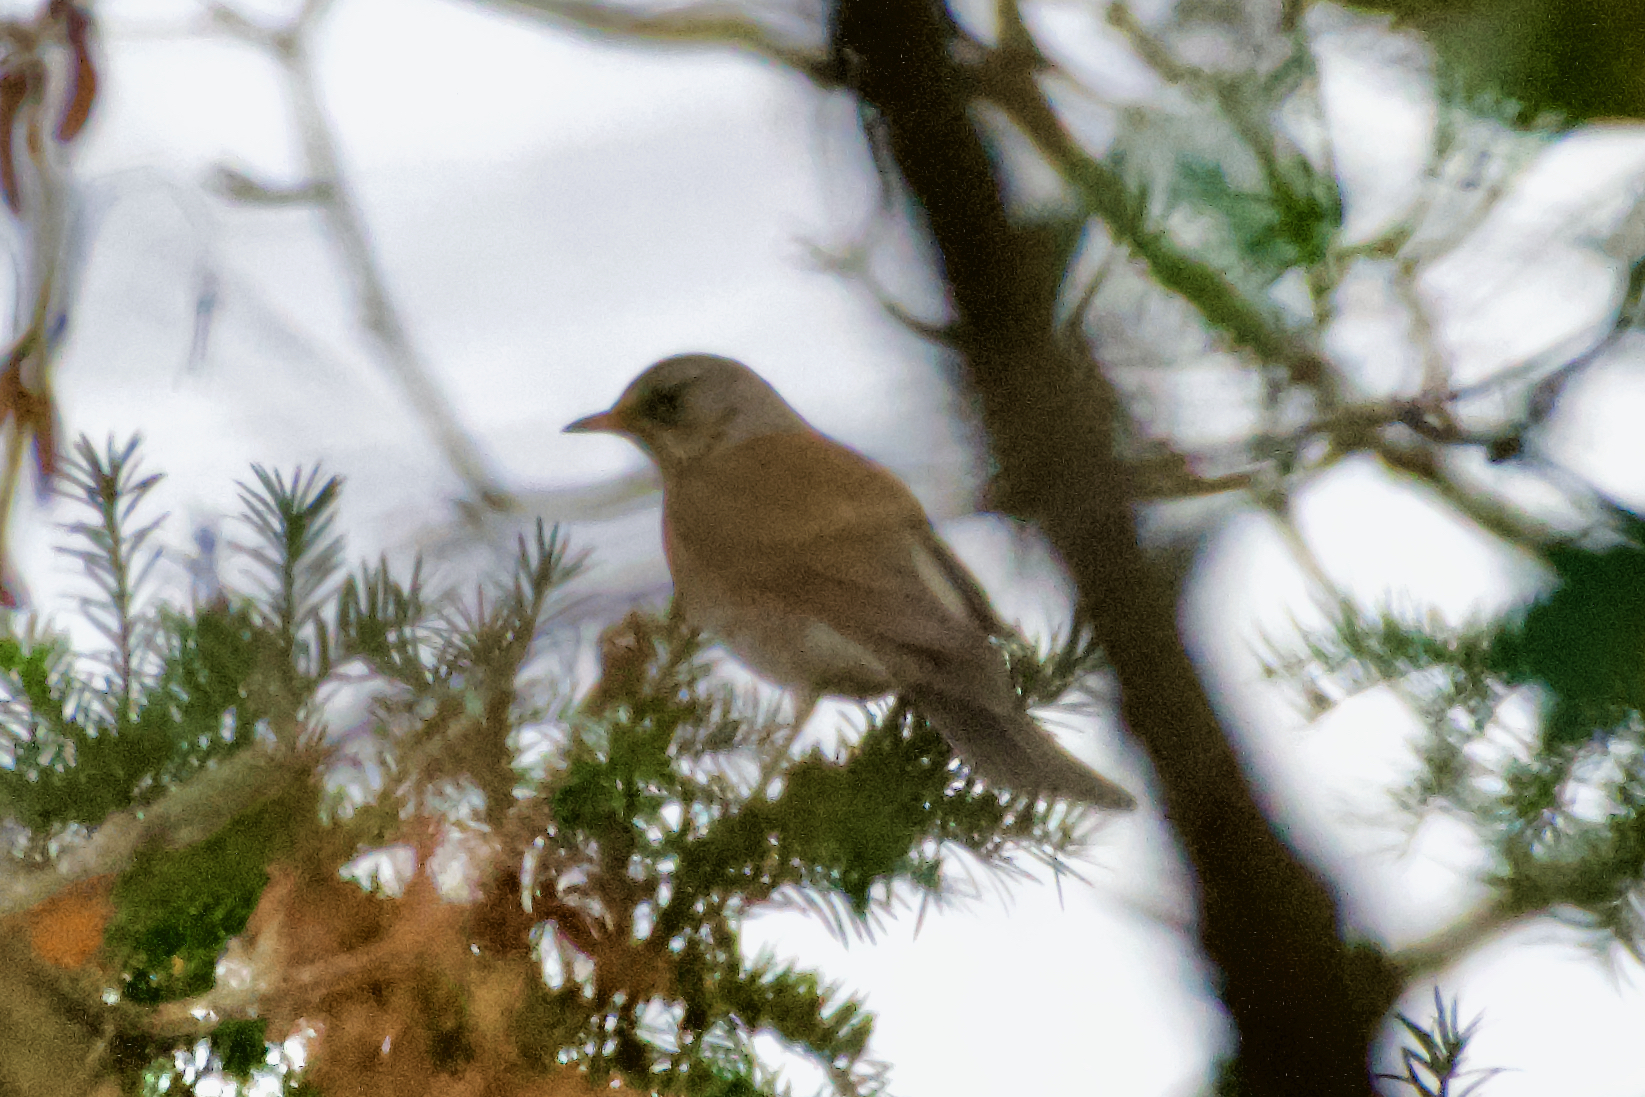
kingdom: Animalia
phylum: Chordata
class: Aves
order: Passeriformes
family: Turdidae
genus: Turdus
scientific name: Turdus pilaris
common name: Fieldfare
